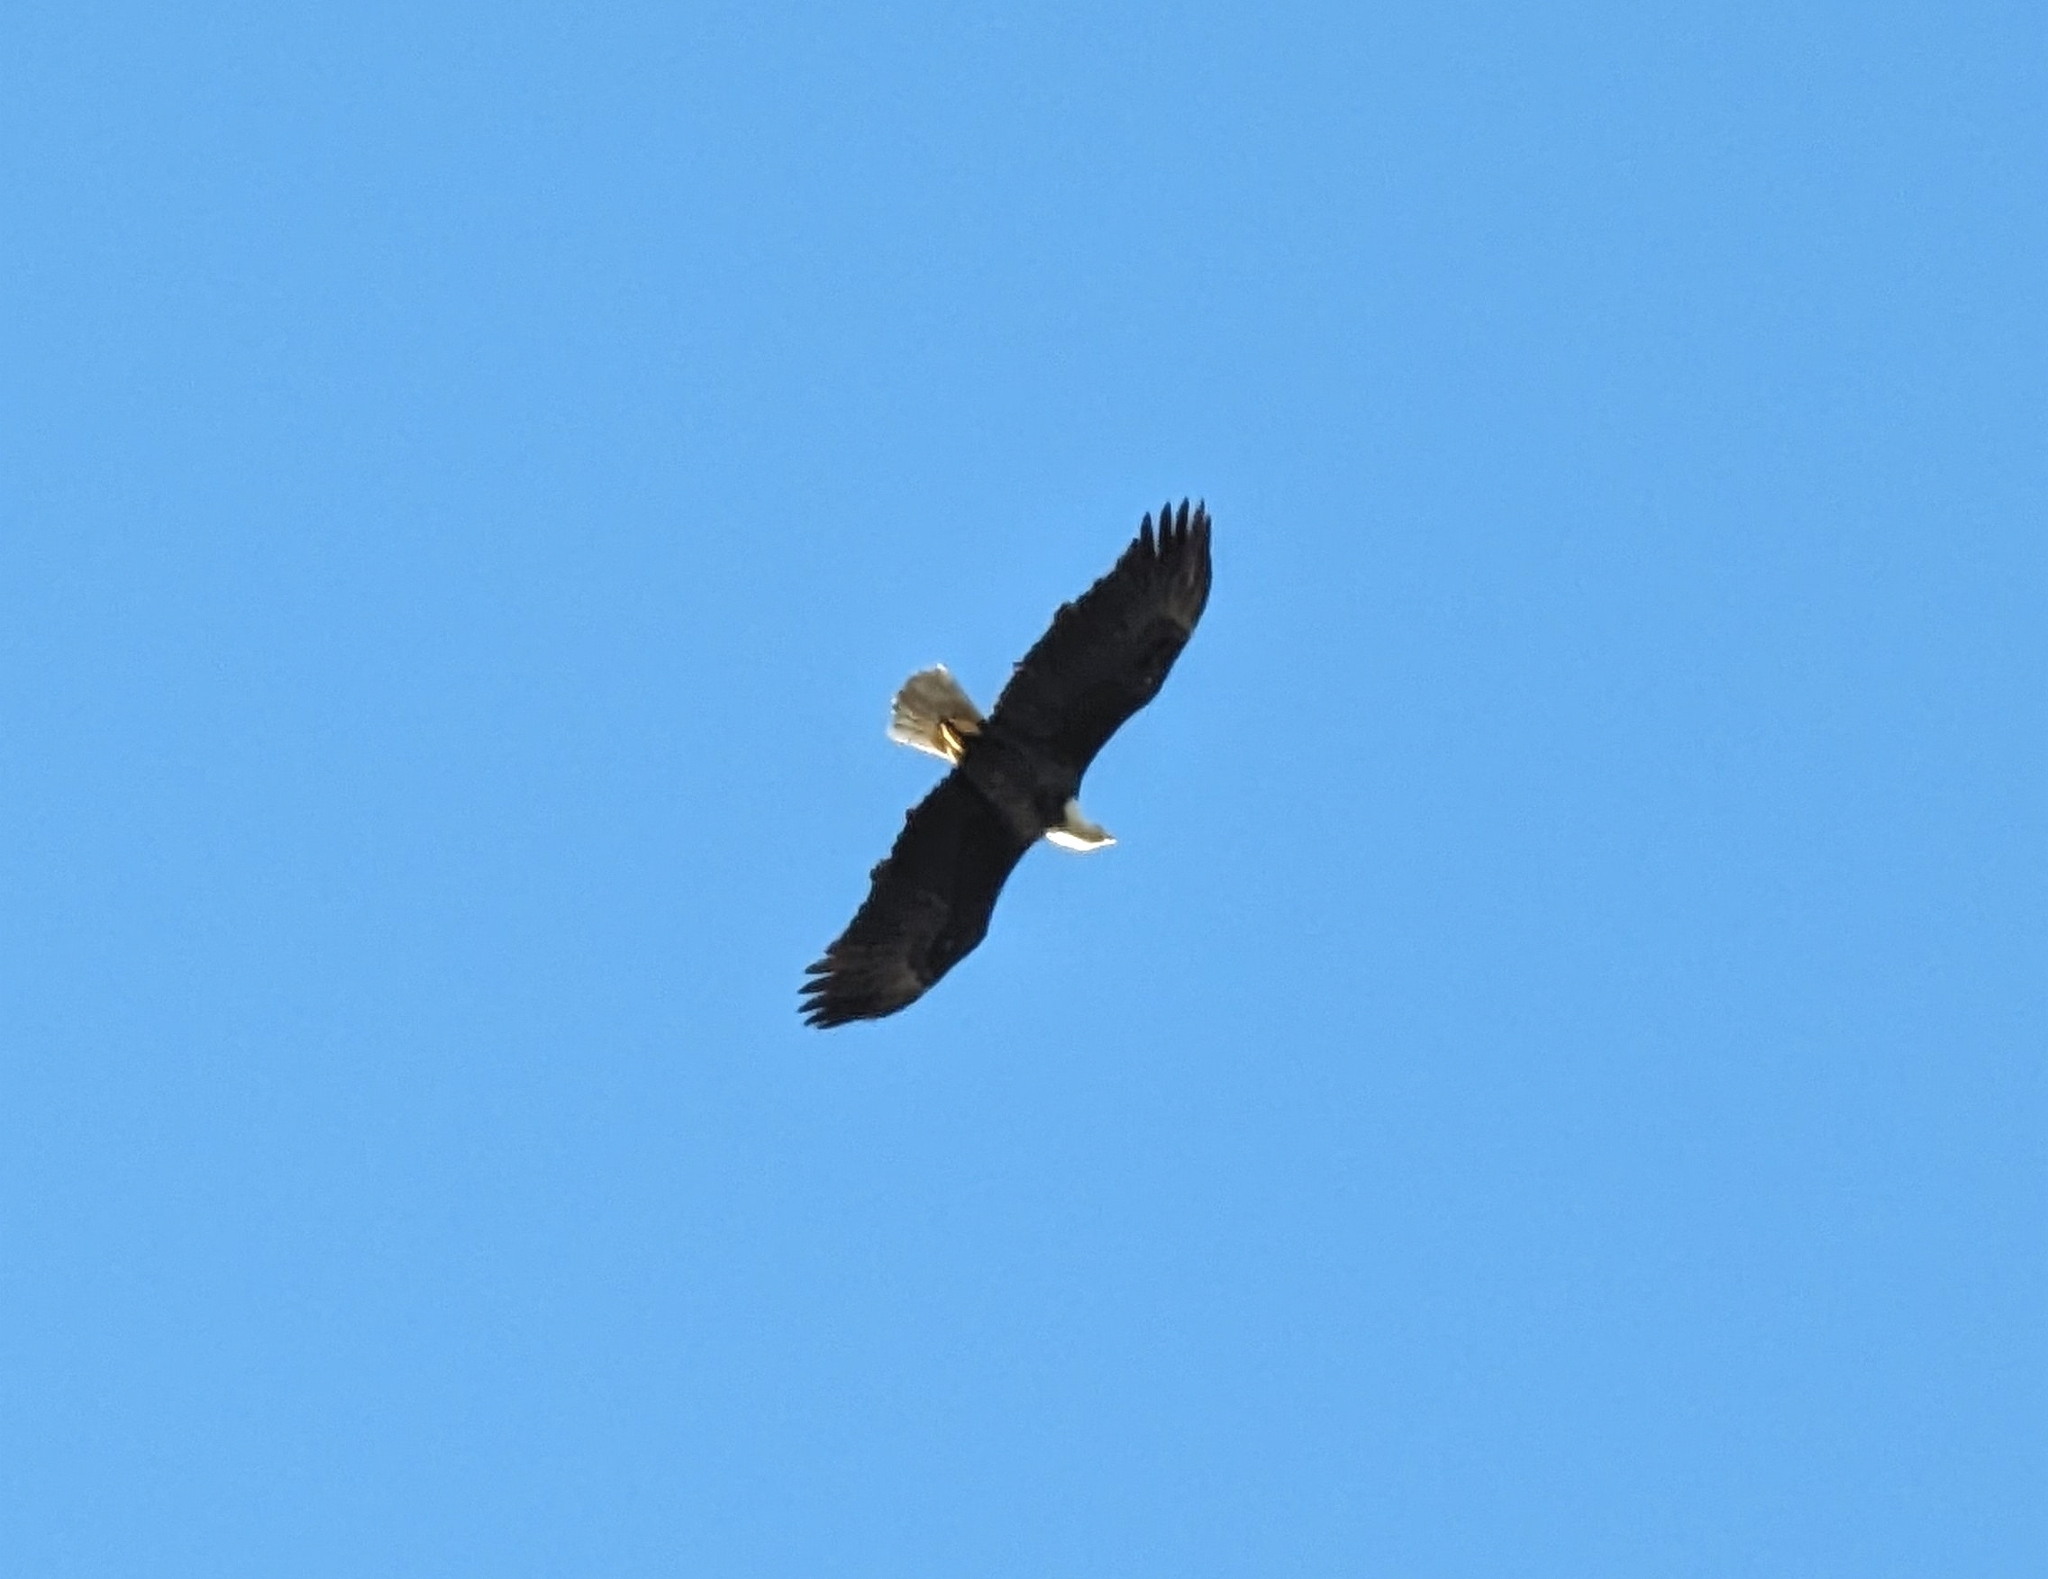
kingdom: Animalia
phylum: Chordata
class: Aves
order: Accipitriformes
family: Accipitridae
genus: Haliaeetus
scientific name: Haliaeetus leucocephalus
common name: Bald eagle
